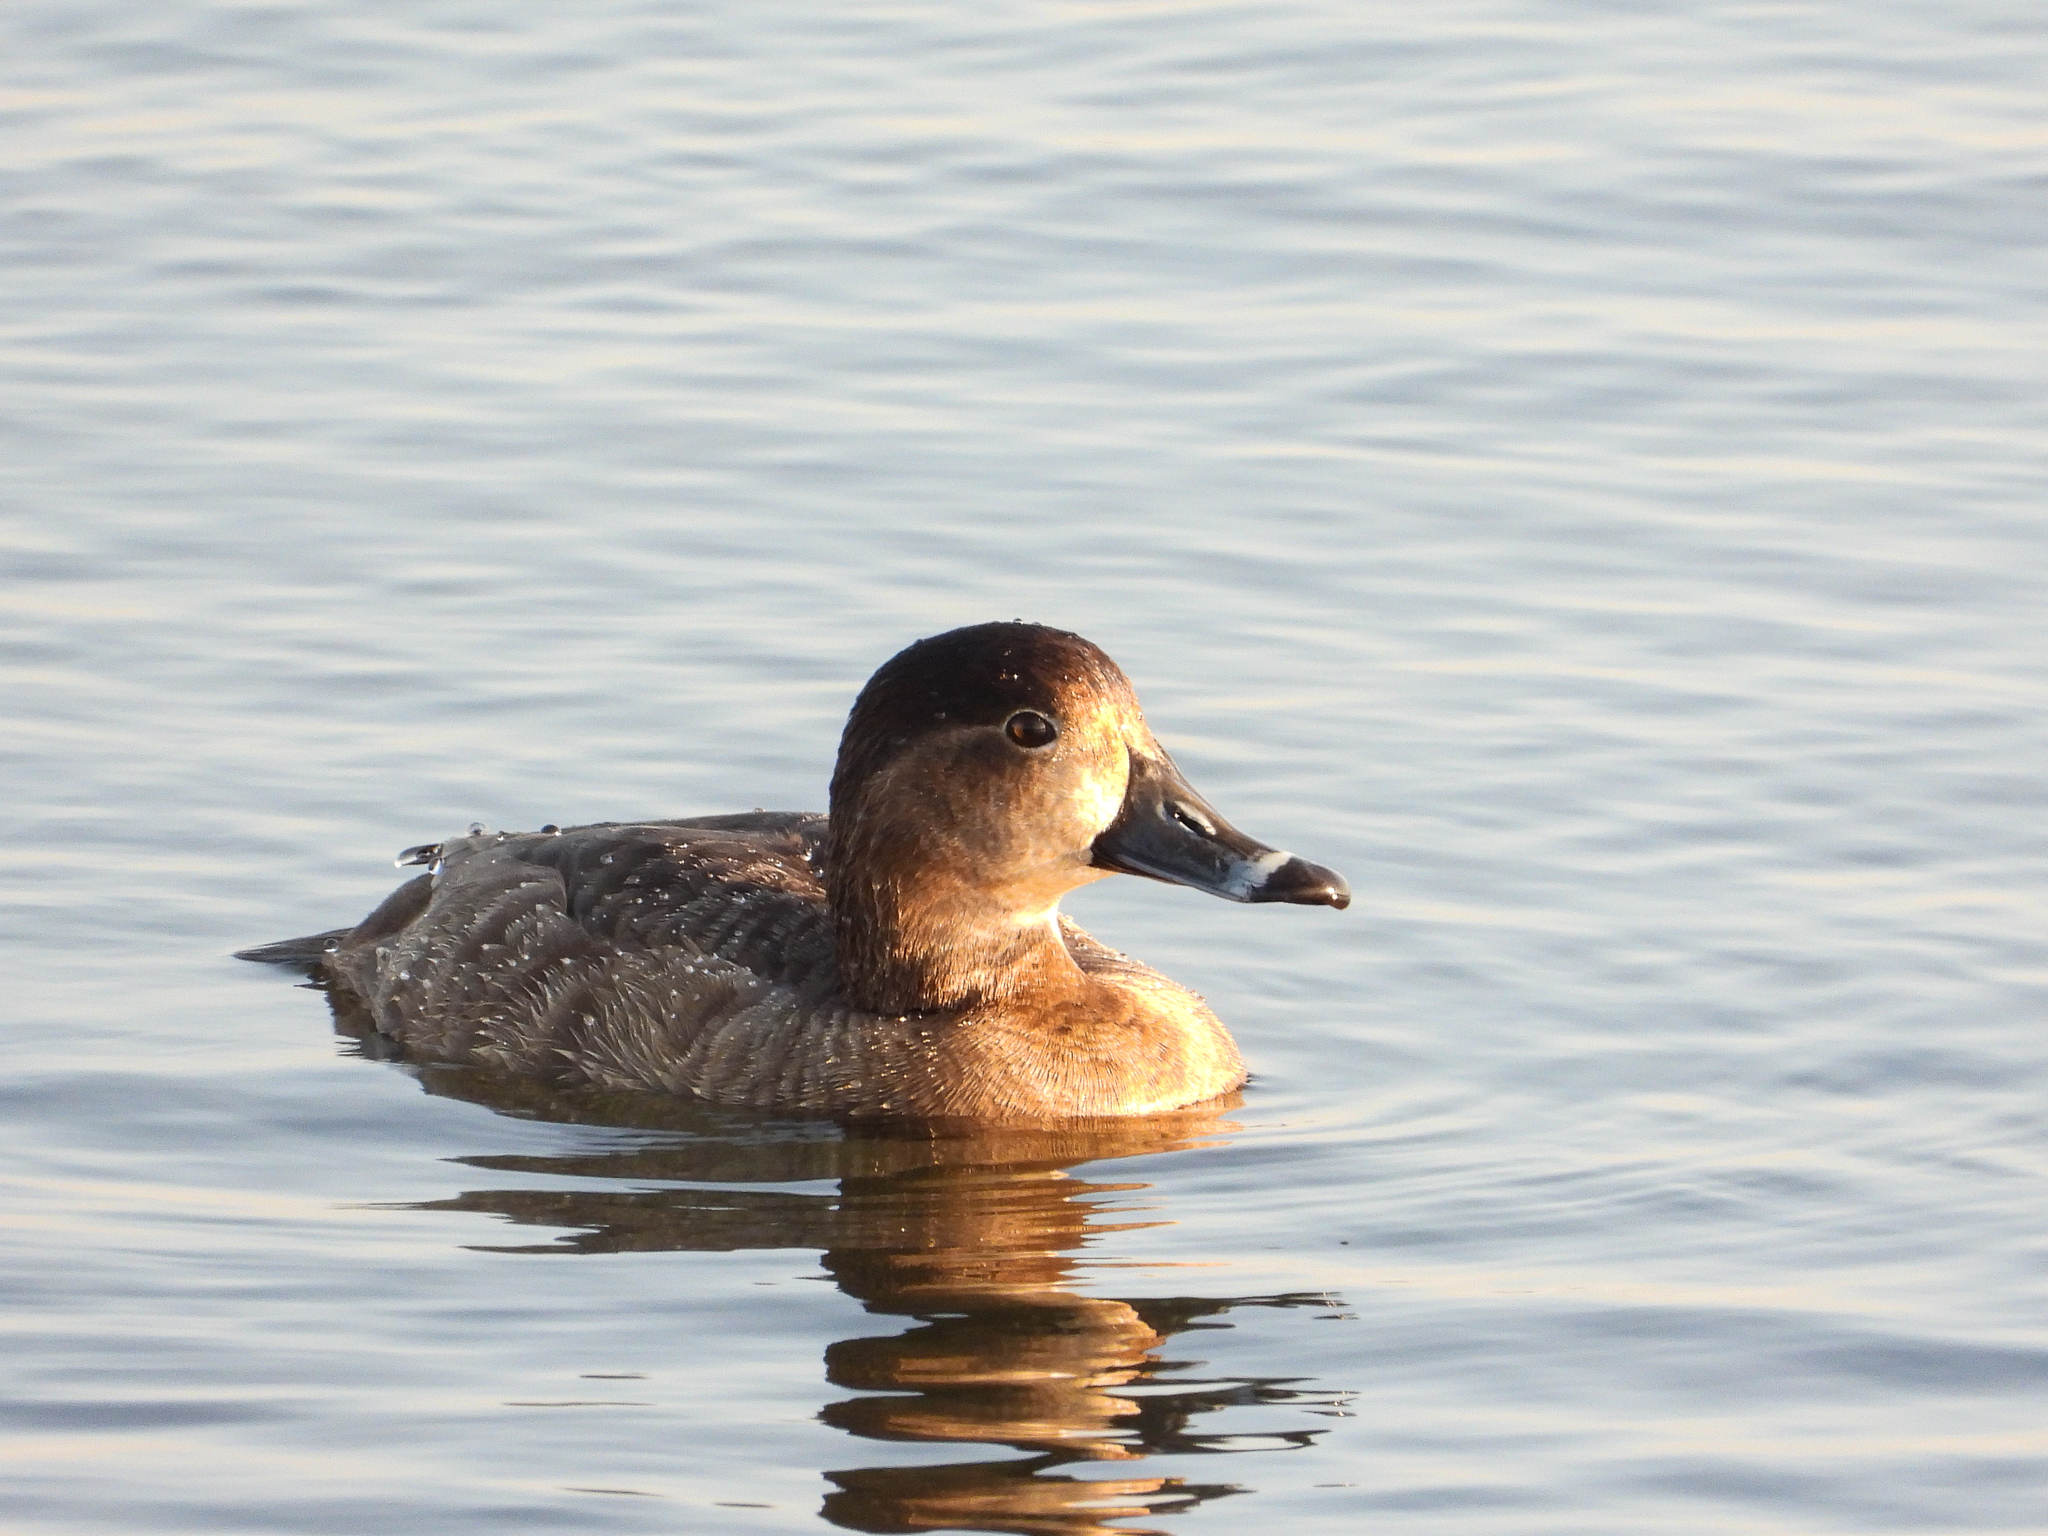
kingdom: Animalia
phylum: Chordata
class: Aves
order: Anseriformes
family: Anatidae
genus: Aythya
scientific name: Aythya americana
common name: Redhead
